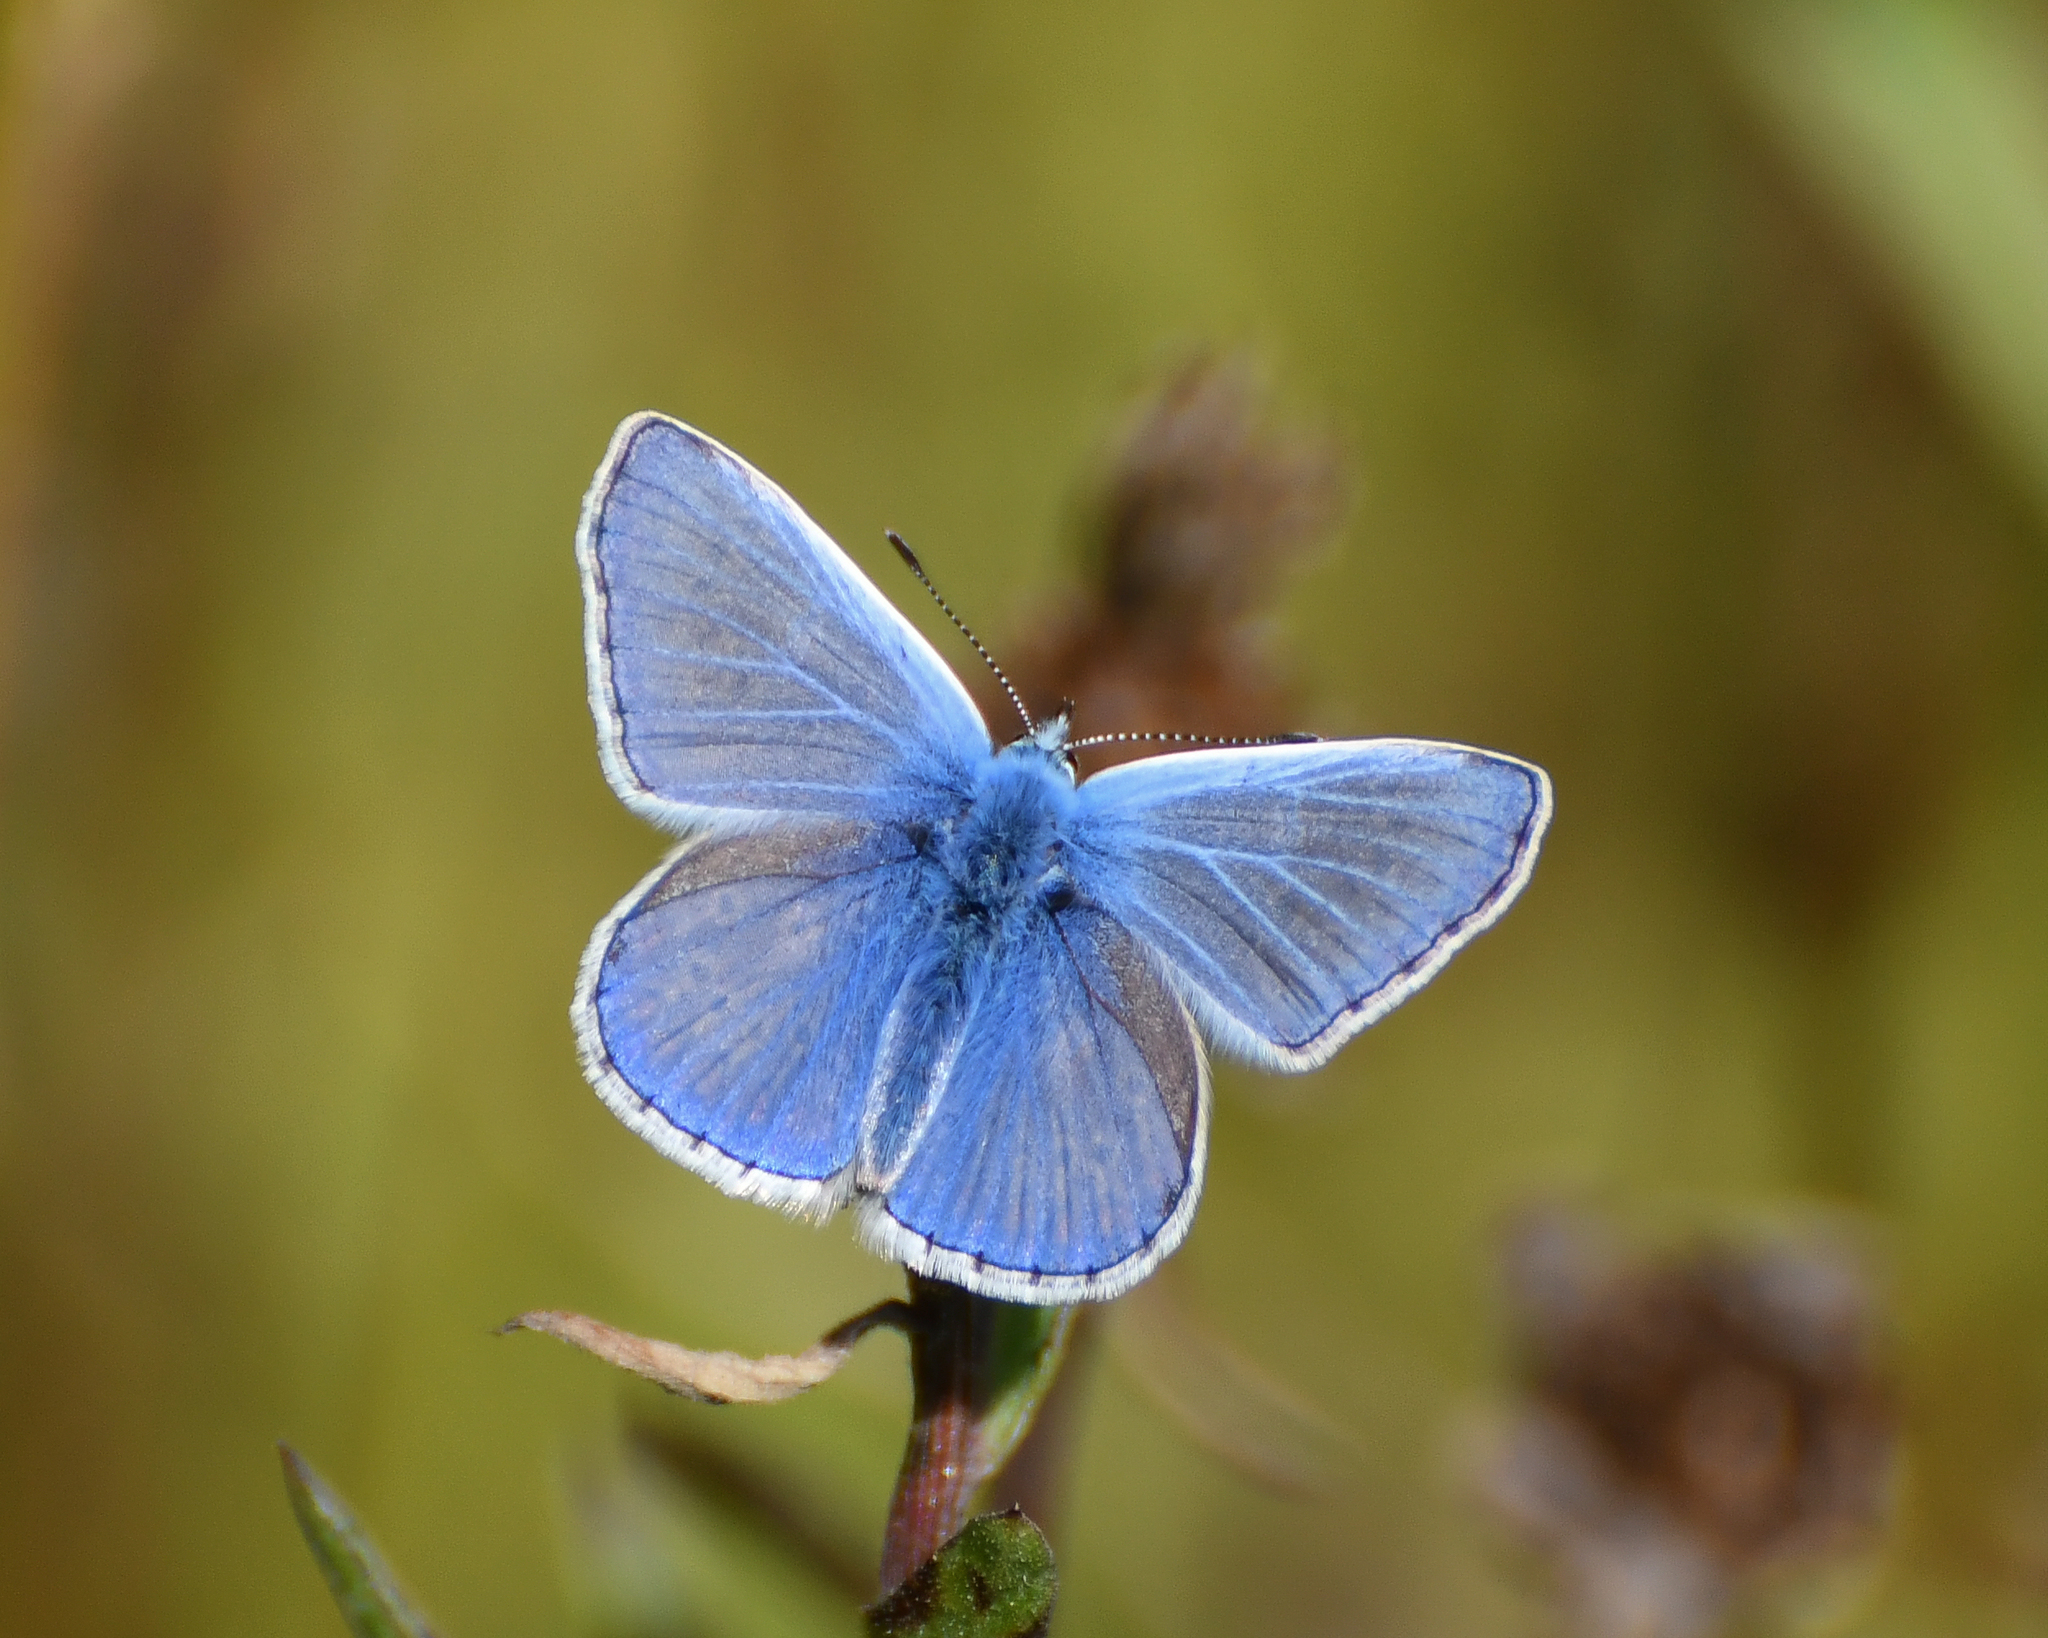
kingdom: Animalia
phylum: Arthropoda
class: Insecta
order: Lepidoptera
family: Lycaenidae
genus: Polyommatus
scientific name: Polyommatus icarus
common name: Common blue
